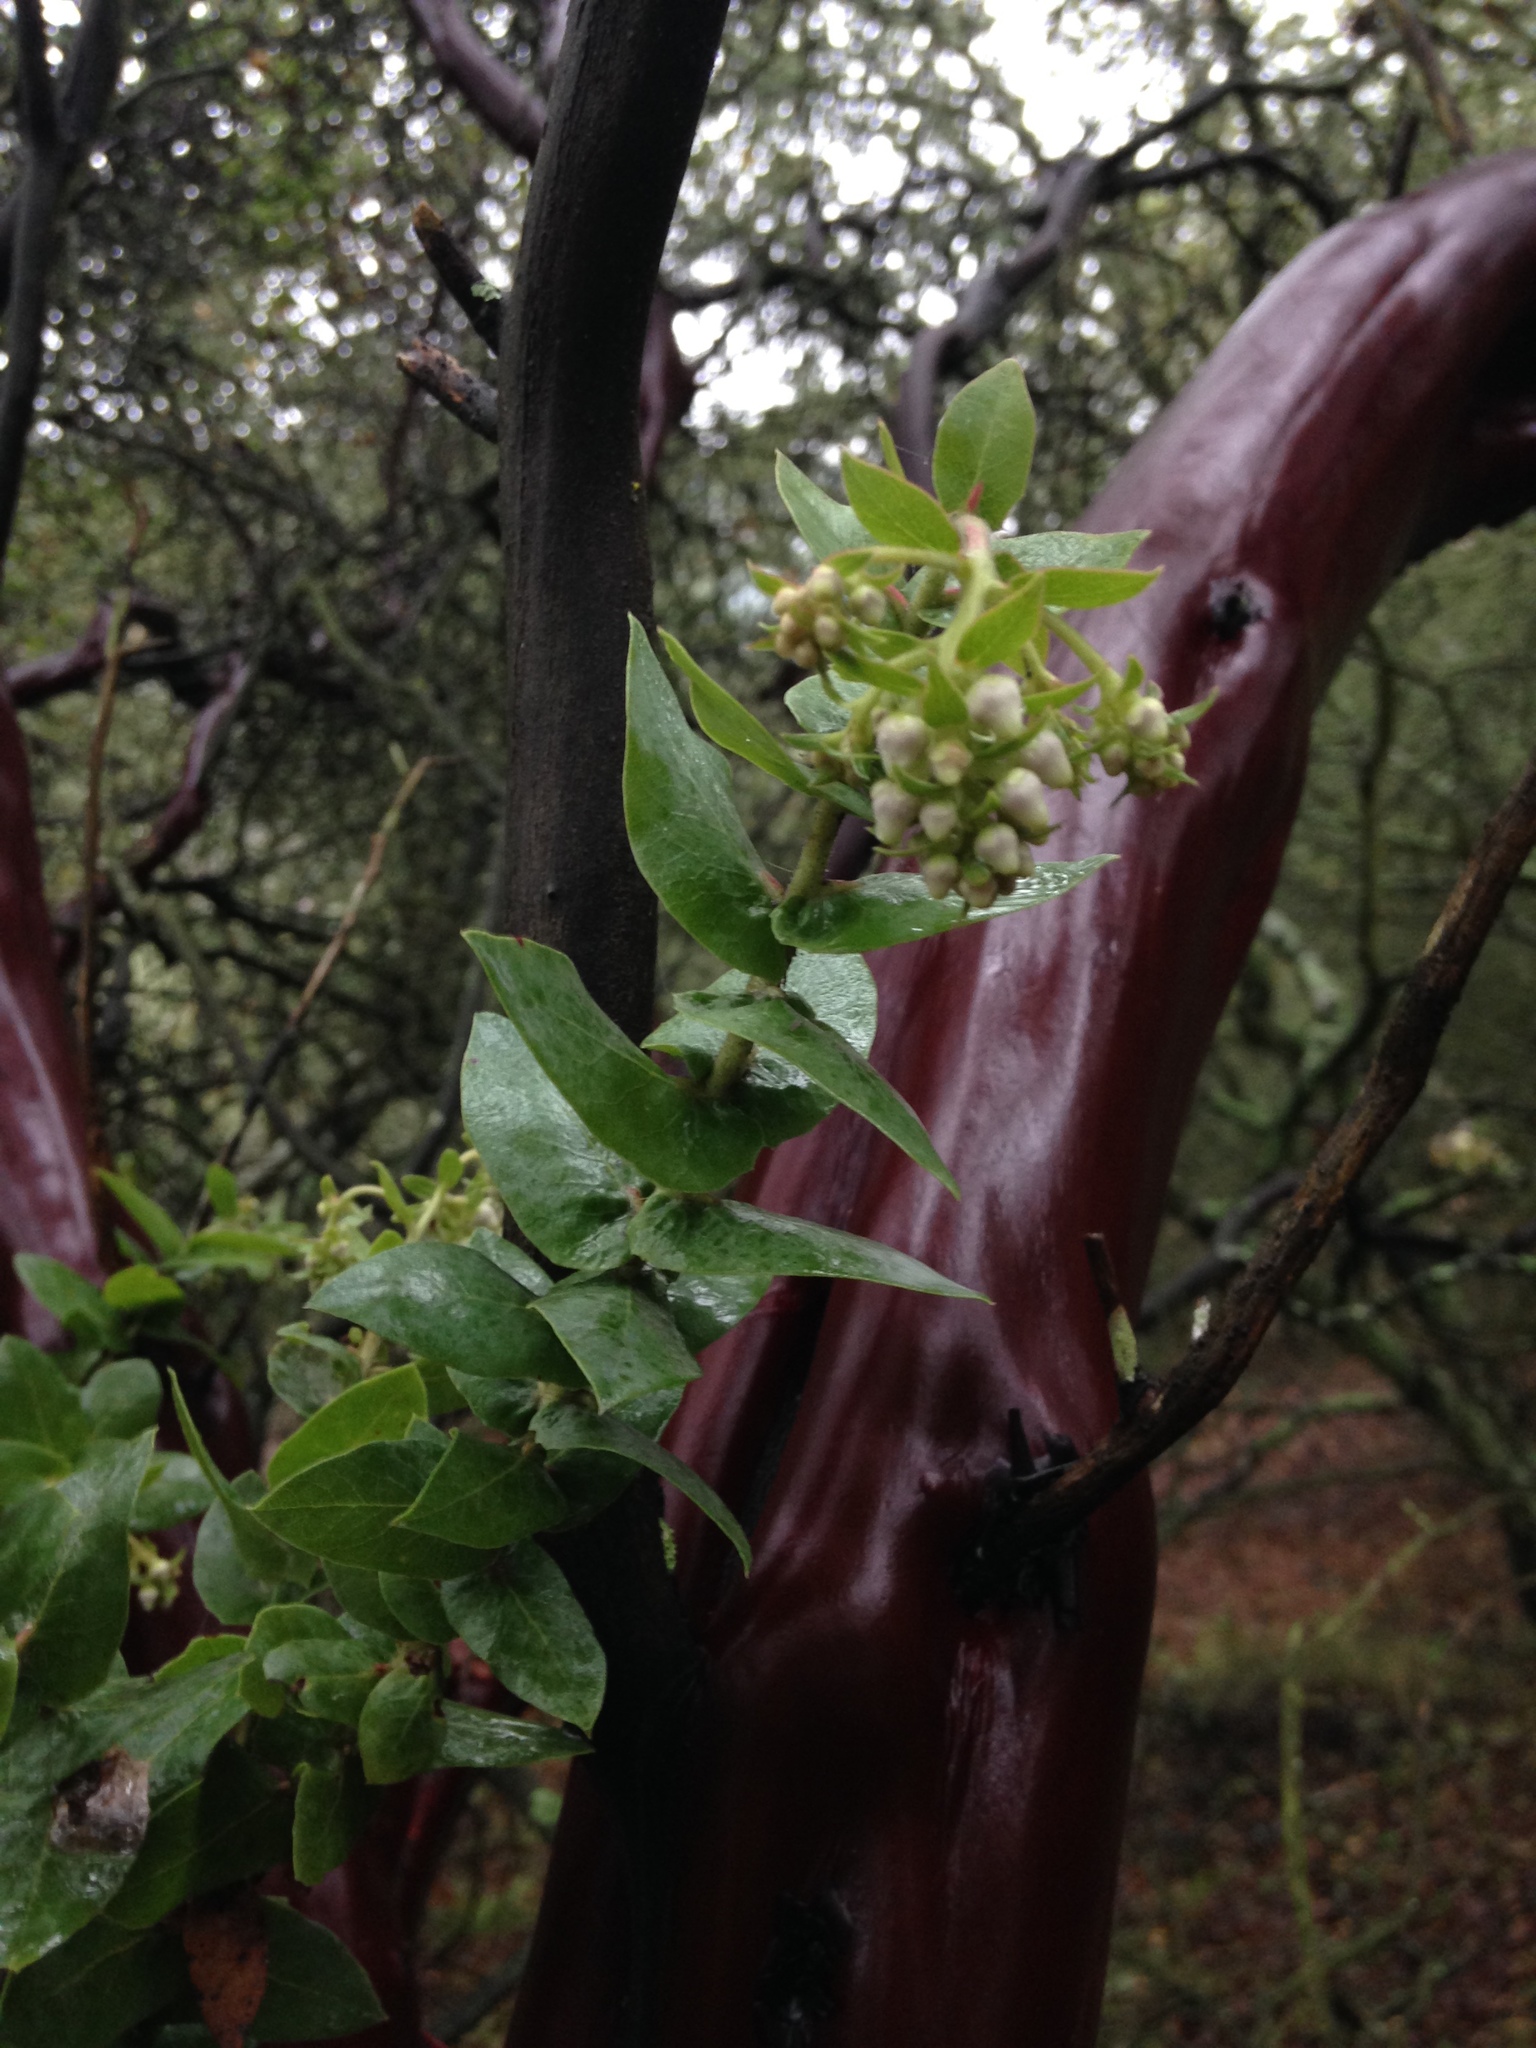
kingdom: Plantae
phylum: Tracheophyta
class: Magnoliopsida
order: Ericales
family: Ericaceae
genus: Arctostaphylos
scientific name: Arctostaphylos pallida
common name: Pallid manzanita
